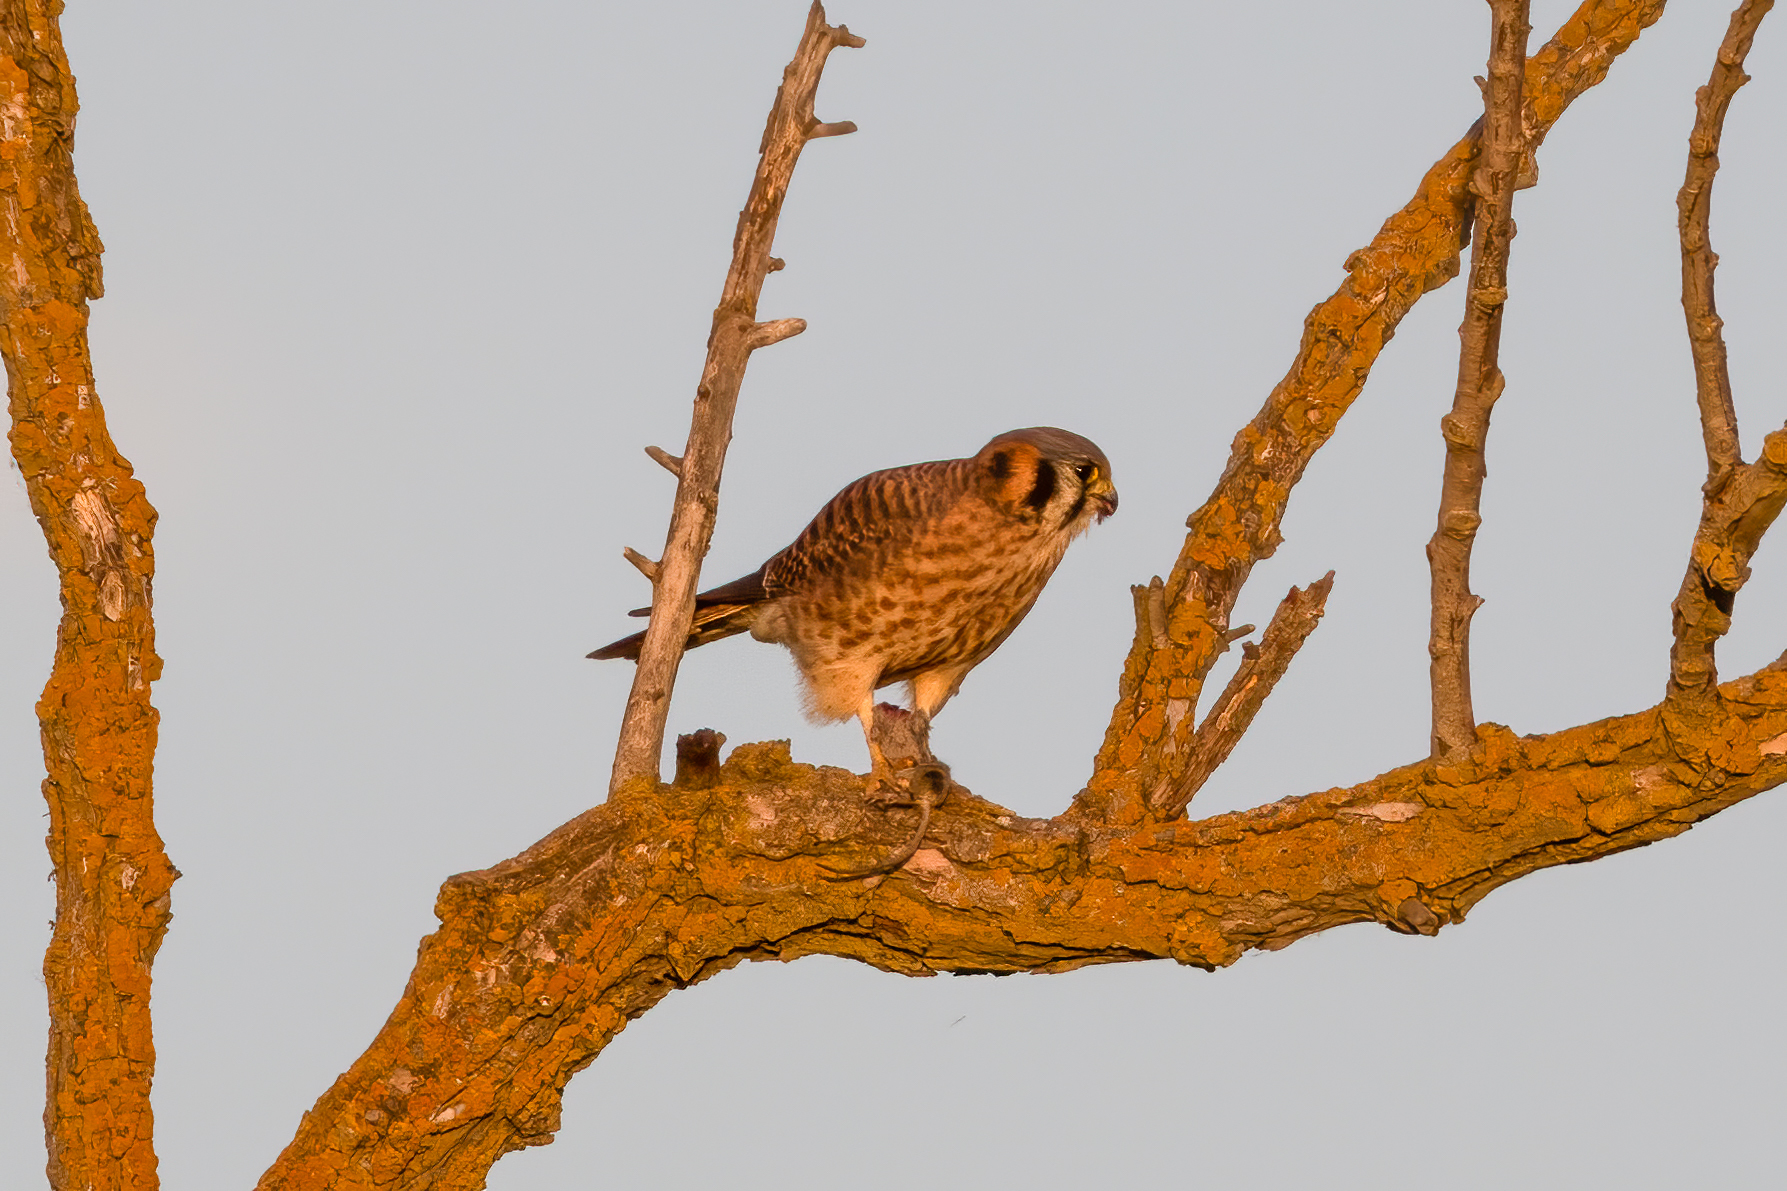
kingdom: Animalia
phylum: Chordata
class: Aves
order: Falconiformes
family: Falconidae
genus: Falco
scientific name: Falco sparverius
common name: American kestrel
